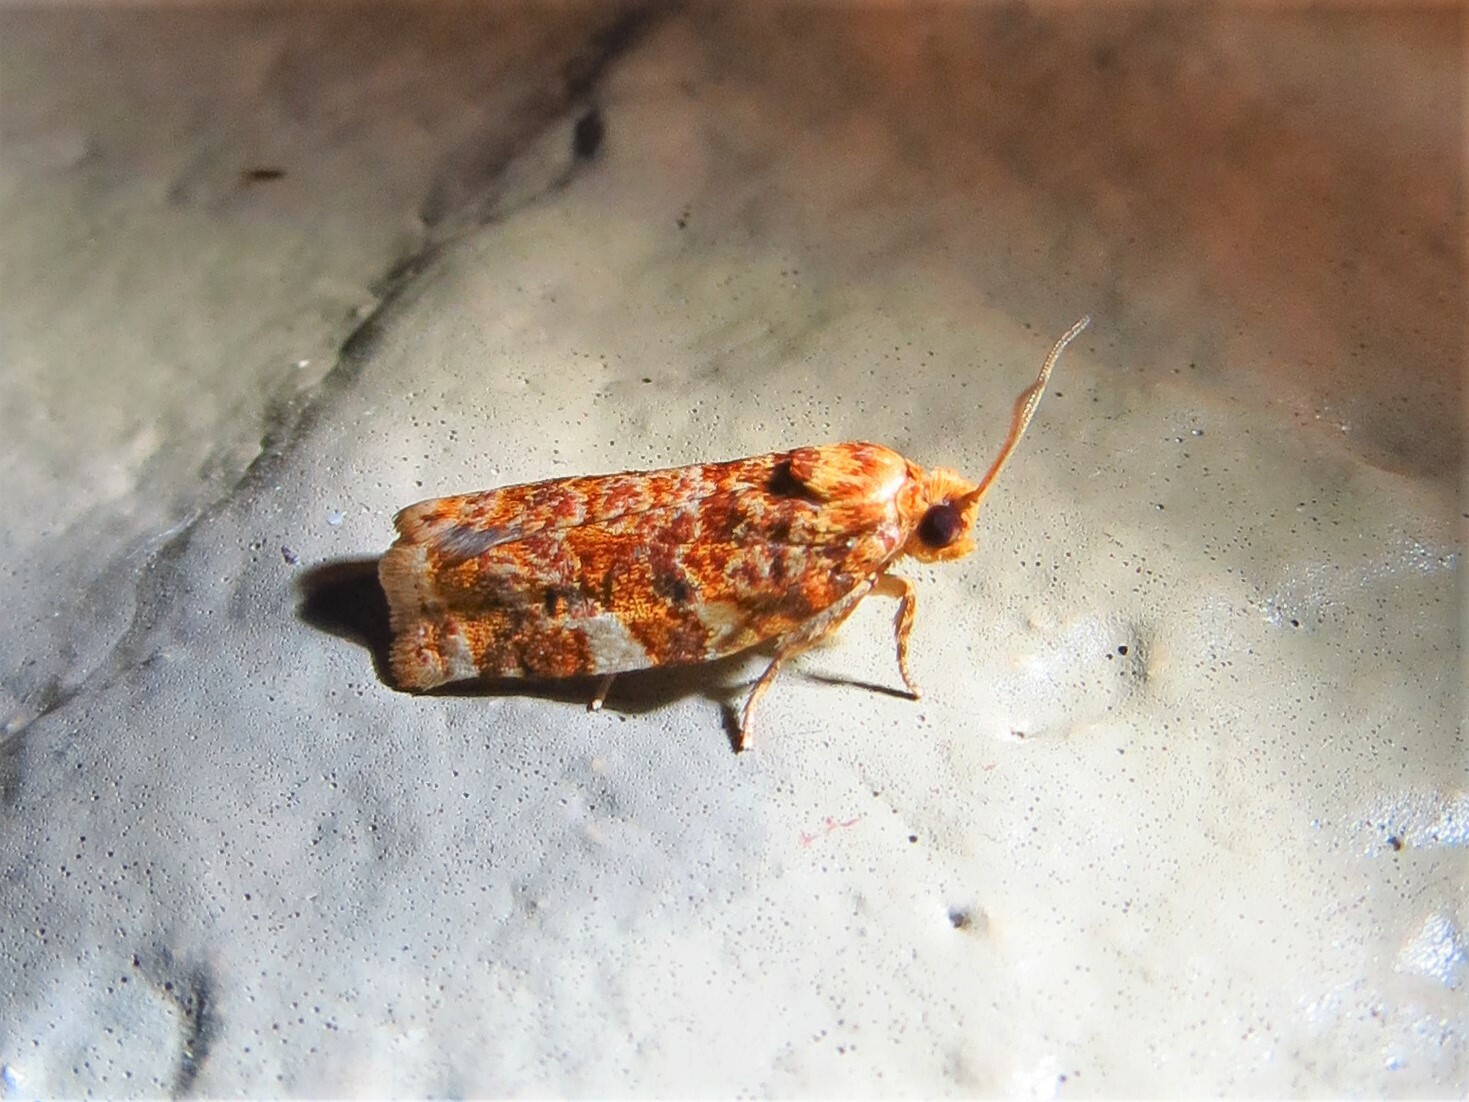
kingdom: Animalia
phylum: Arthropoda
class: Insecta
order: Lepidoptera
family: Tortricidae
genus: Choristoneura
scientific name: Choristoneura houstonana
